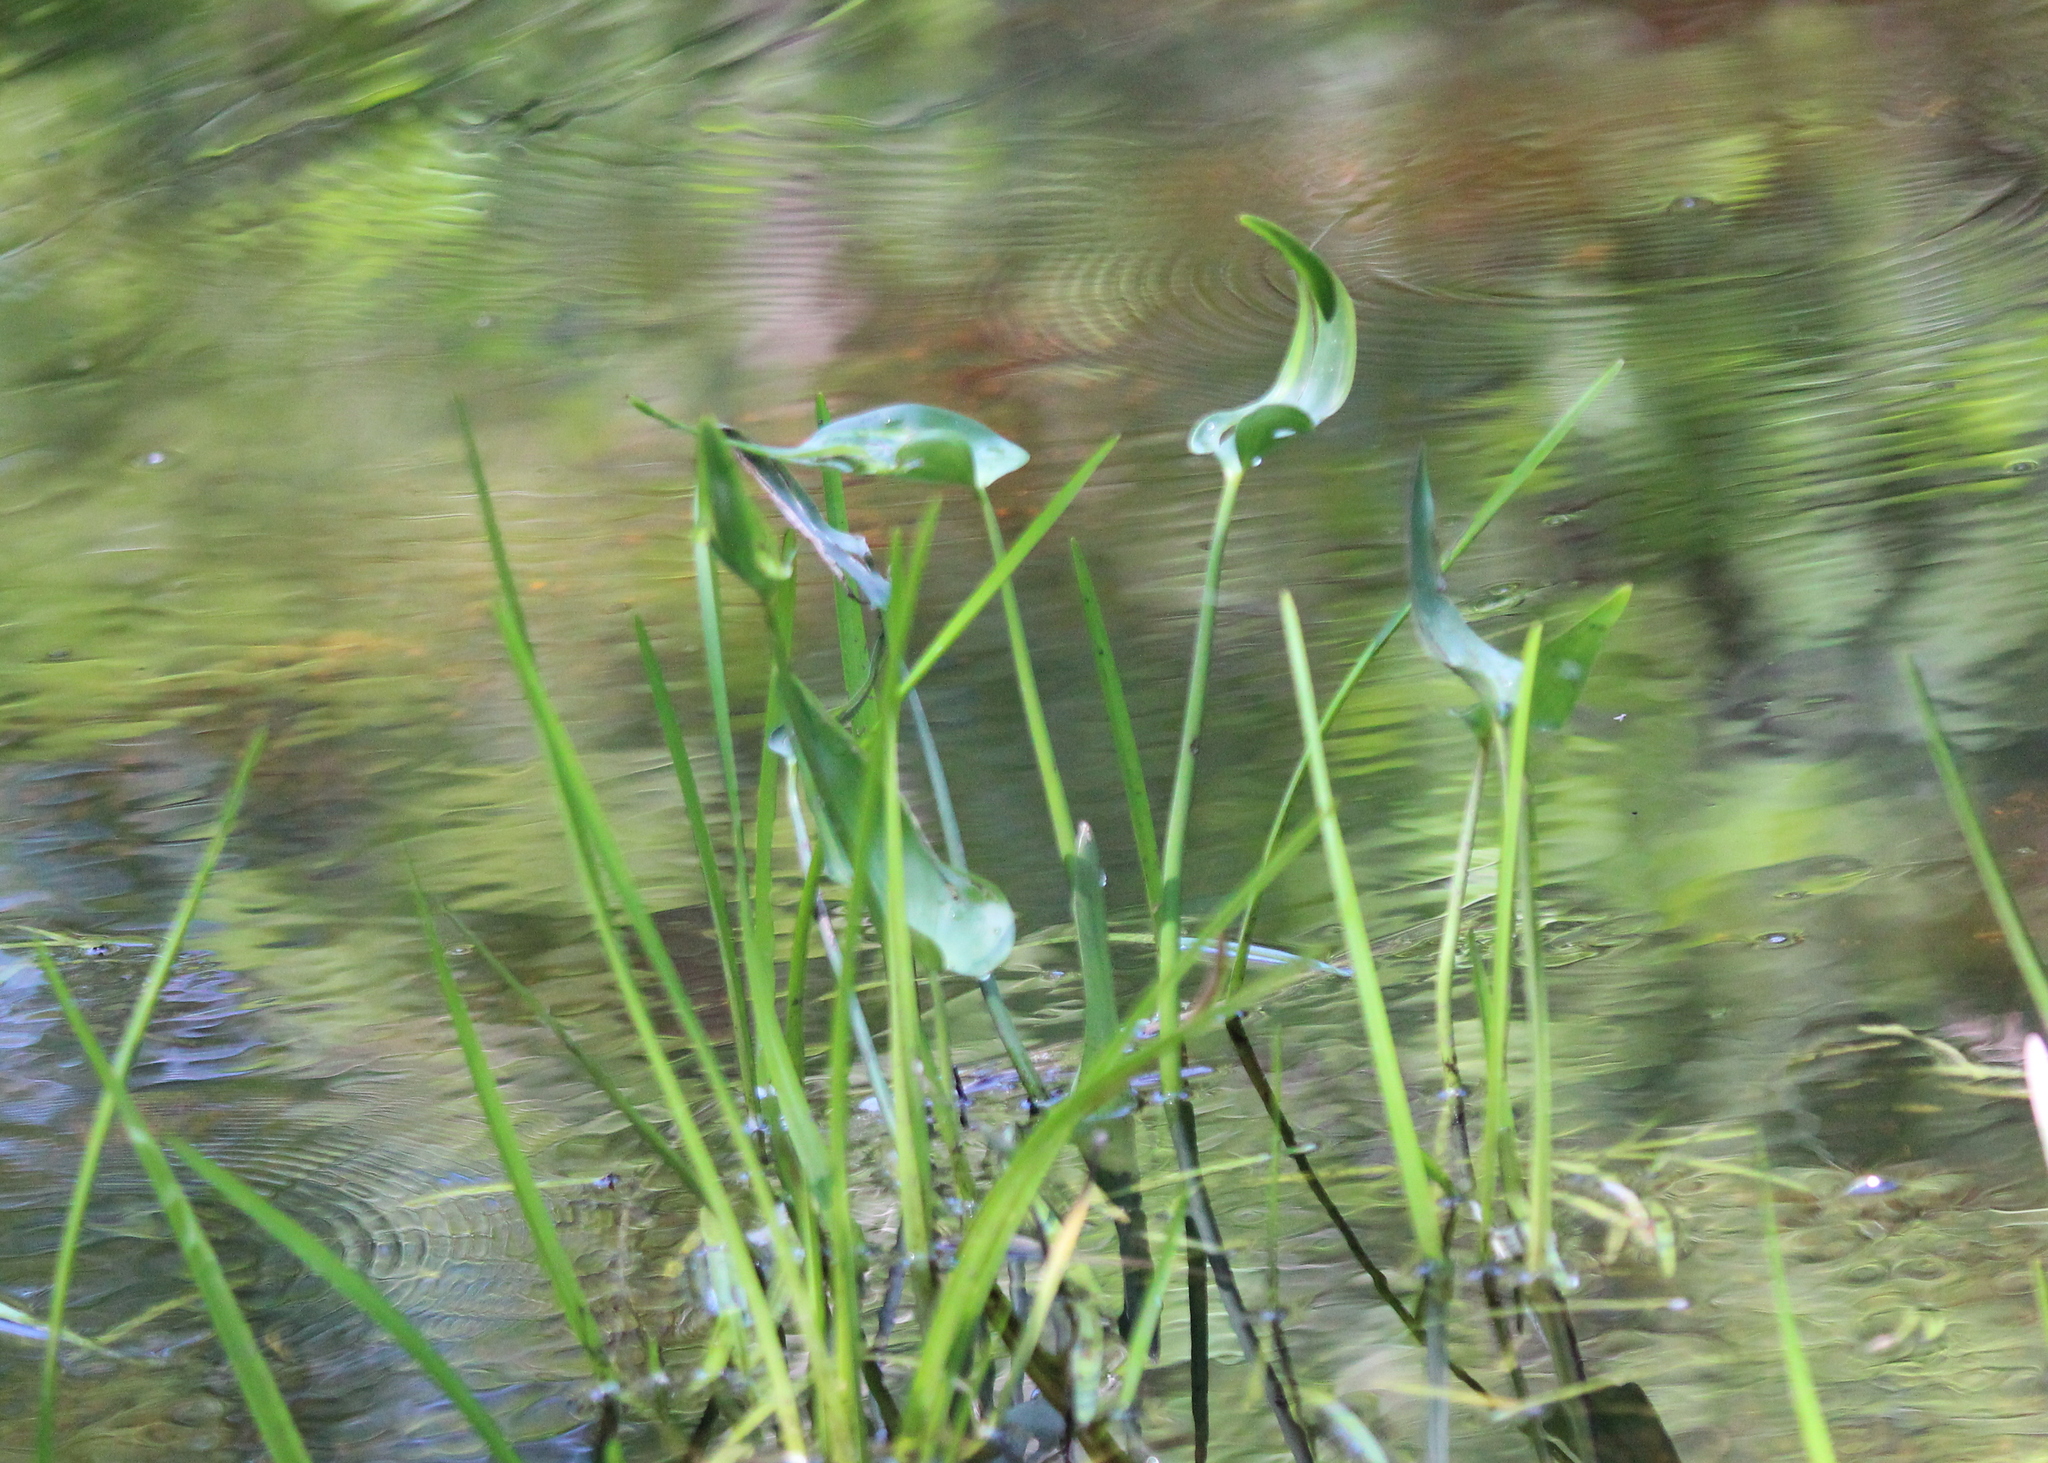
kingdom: Plantae
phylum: Tracheophyta
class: Liliopsida
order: Commelinales
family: Pontederiaceae
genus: Pontederia
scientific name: Pontederia cordata
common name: Pickerelweed
